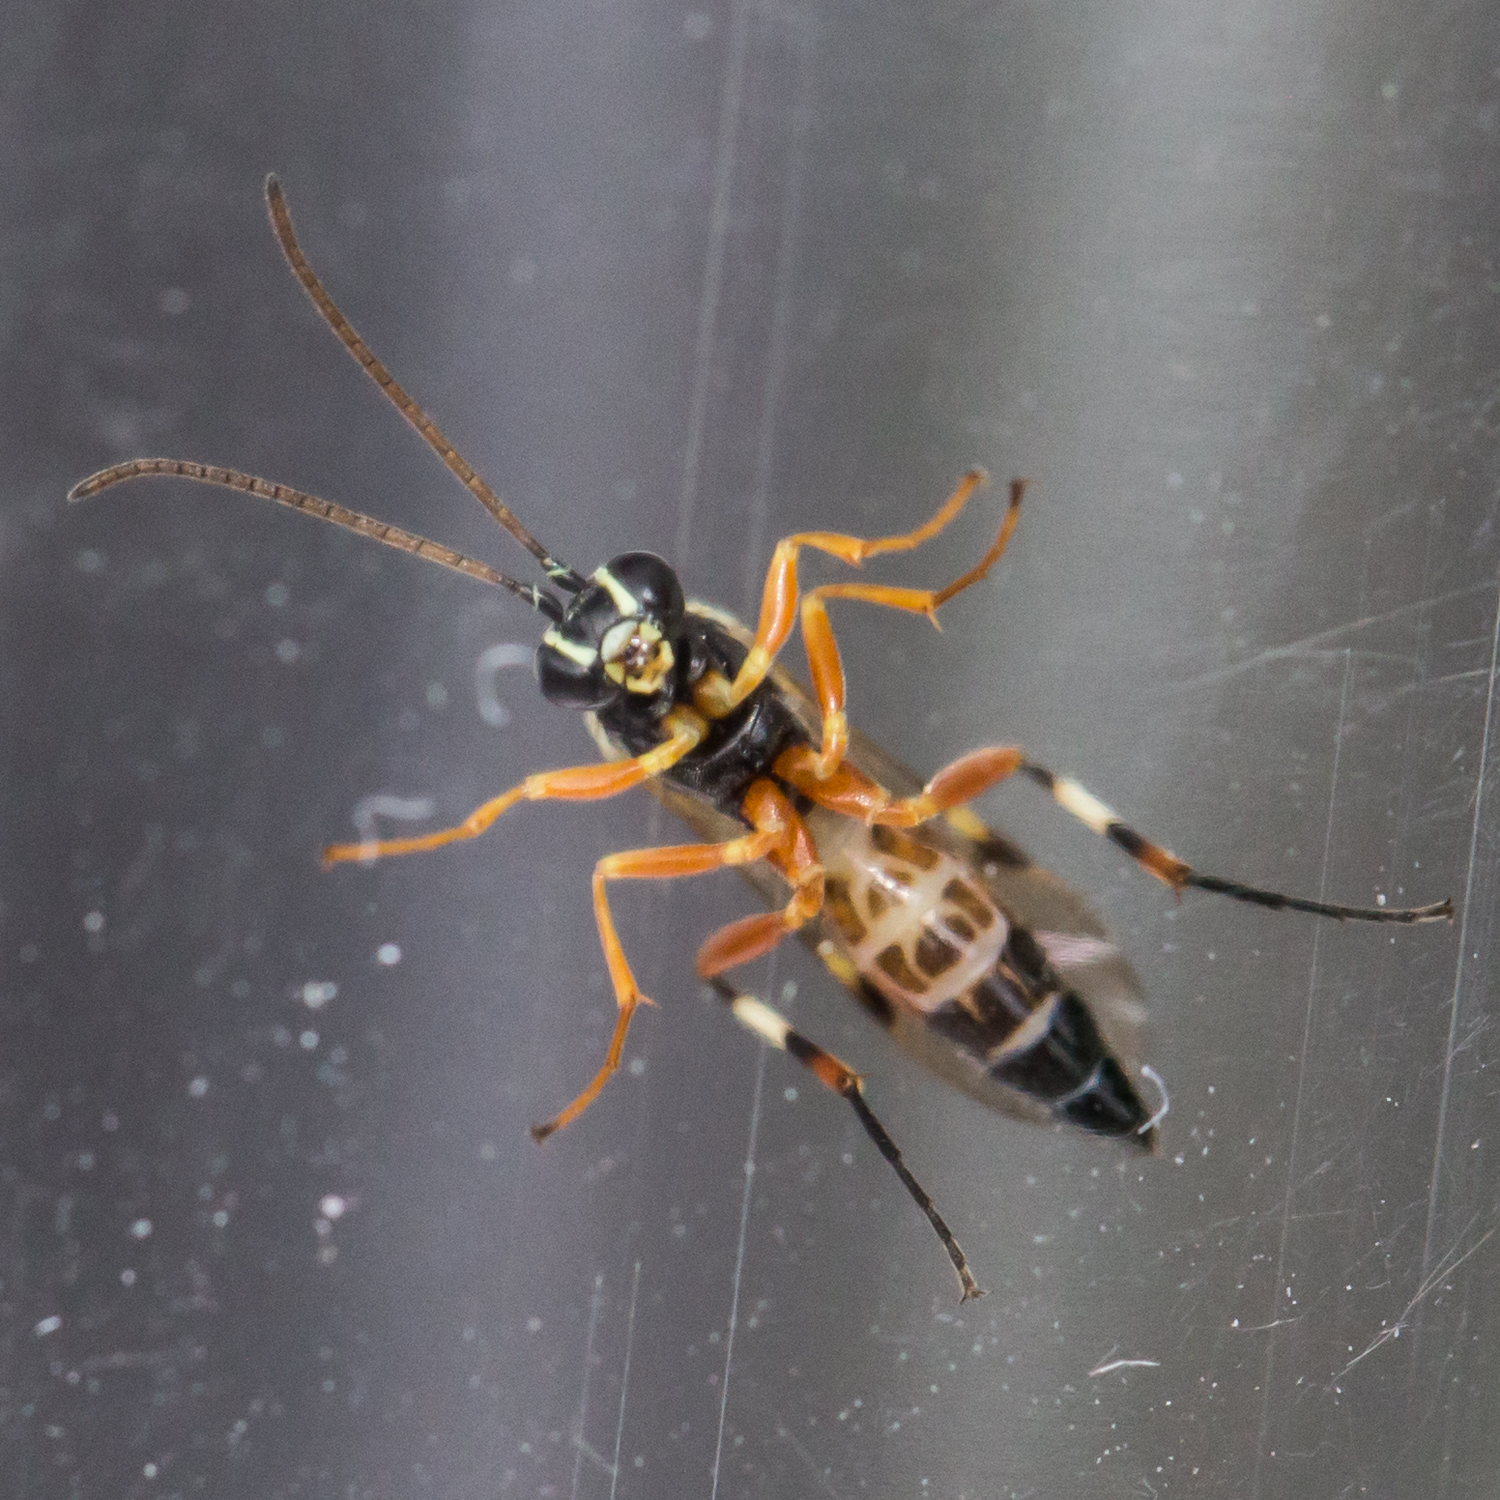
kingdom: Animalia
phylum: Arthropoda
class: Insecta
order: Hymenoptera
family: Ichneumonidae
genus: Diplazon
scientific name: Diplazon laetatorius
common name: Parasitoid wasp
